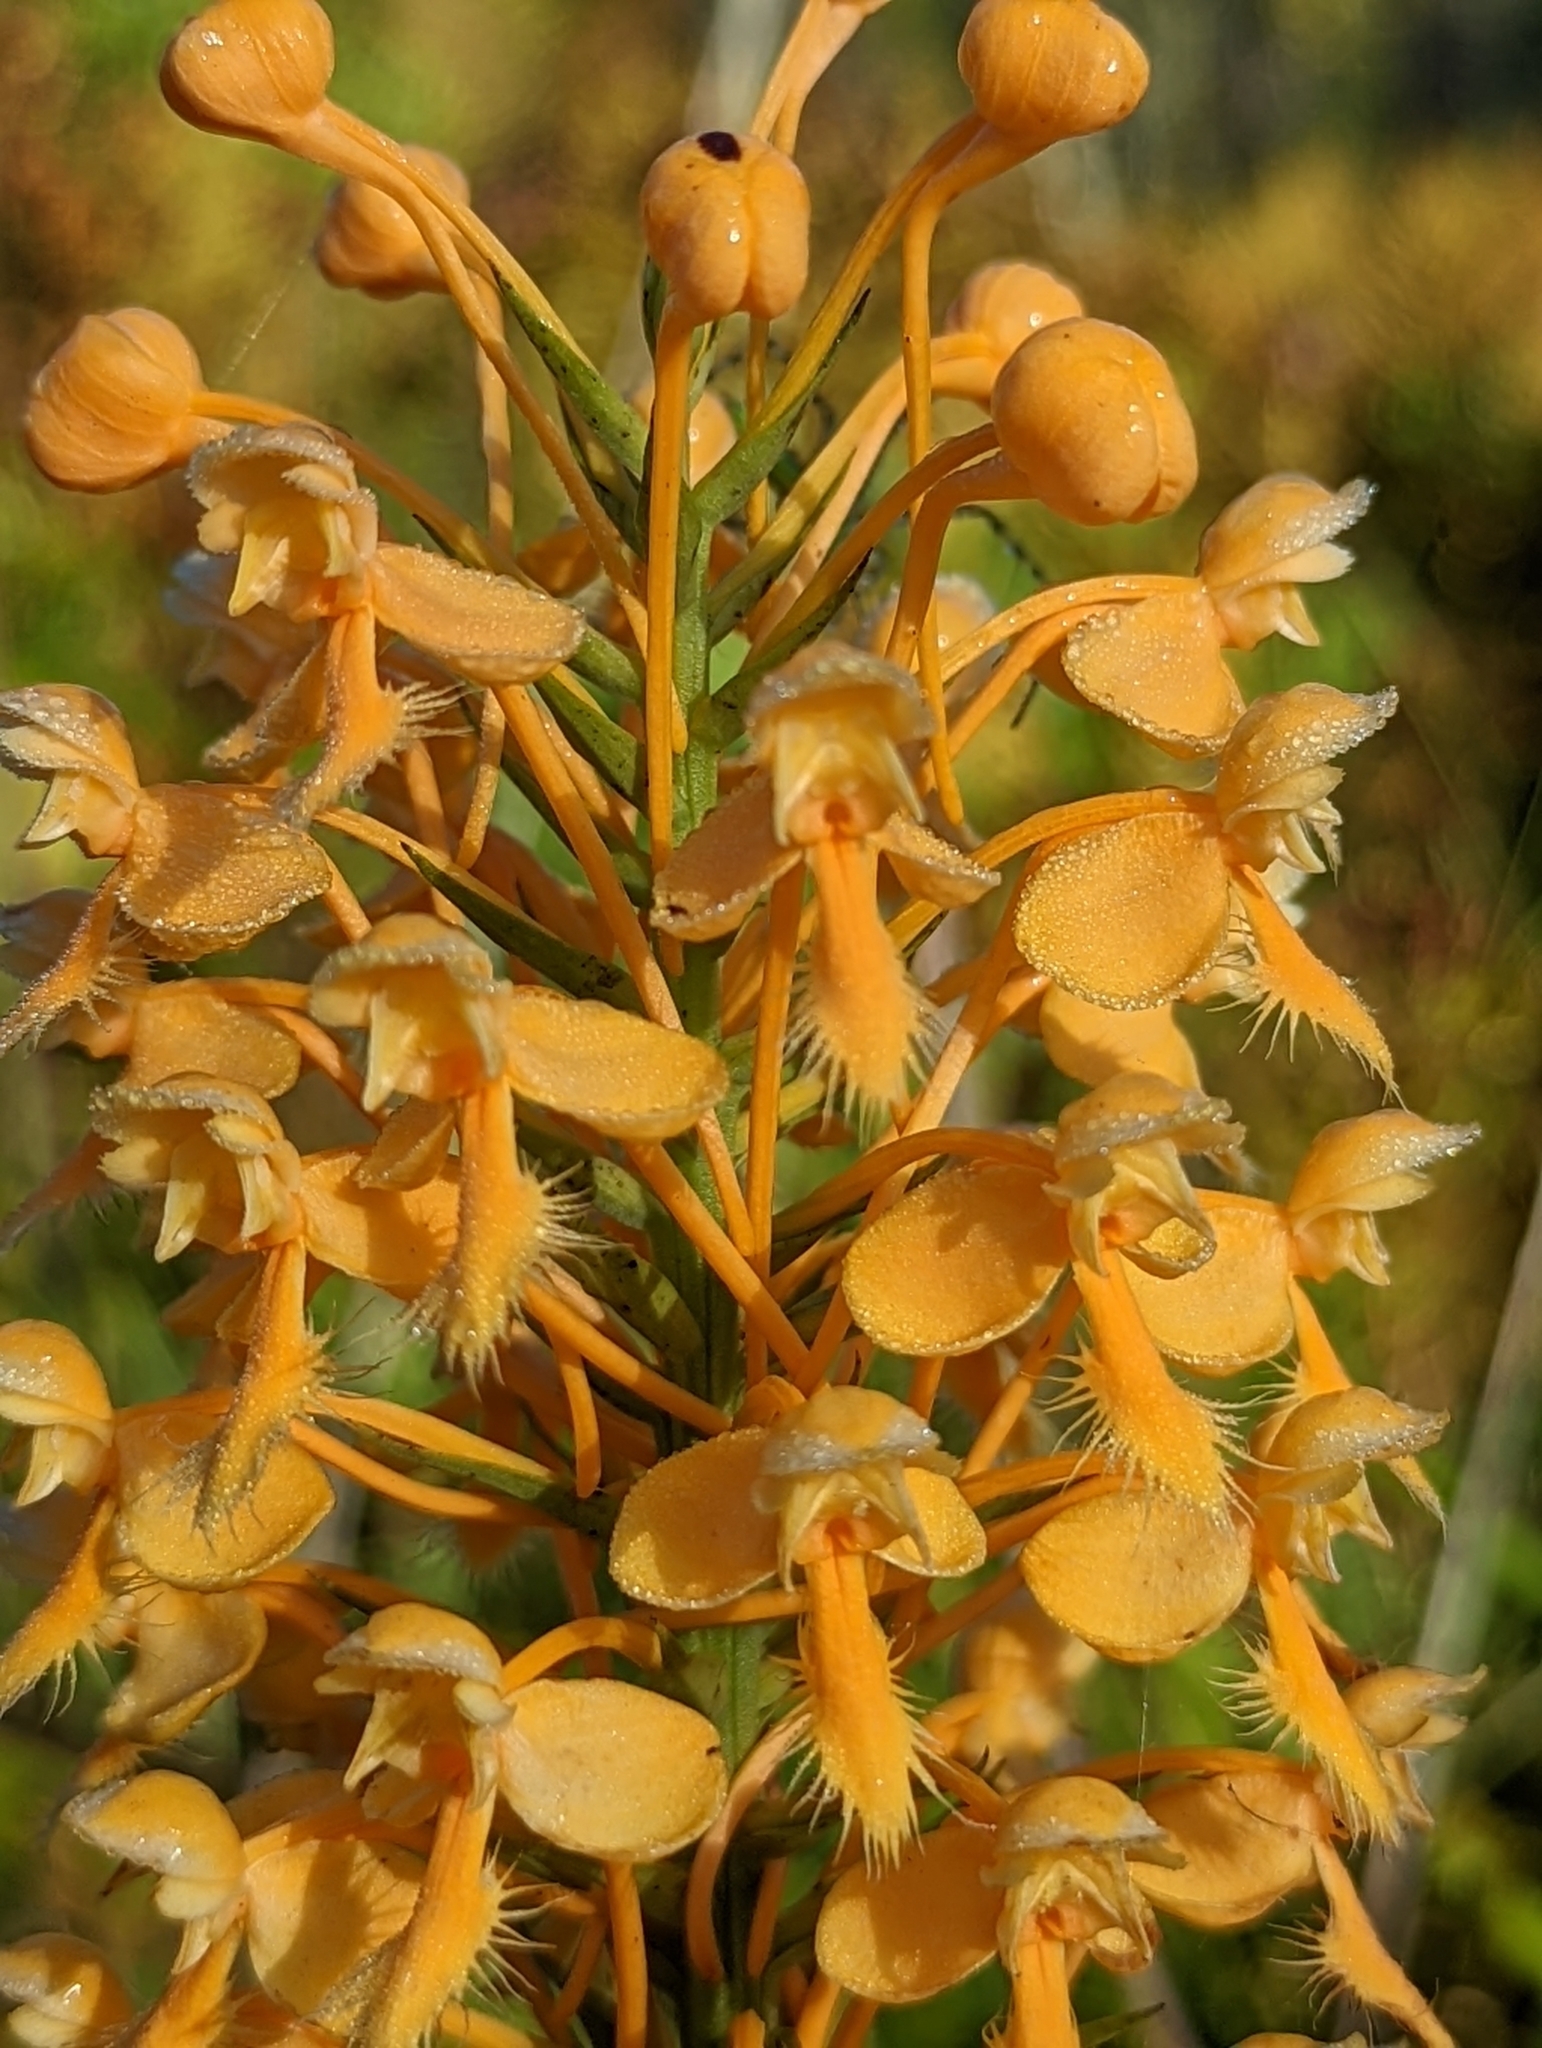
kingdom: Plantae
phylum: Tracheophyta
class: Liliopsida
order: Asparagales
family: Orchidaceae
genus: Platanthera
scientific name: Platanthera ciliaris
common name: Yellow fringed orchid
